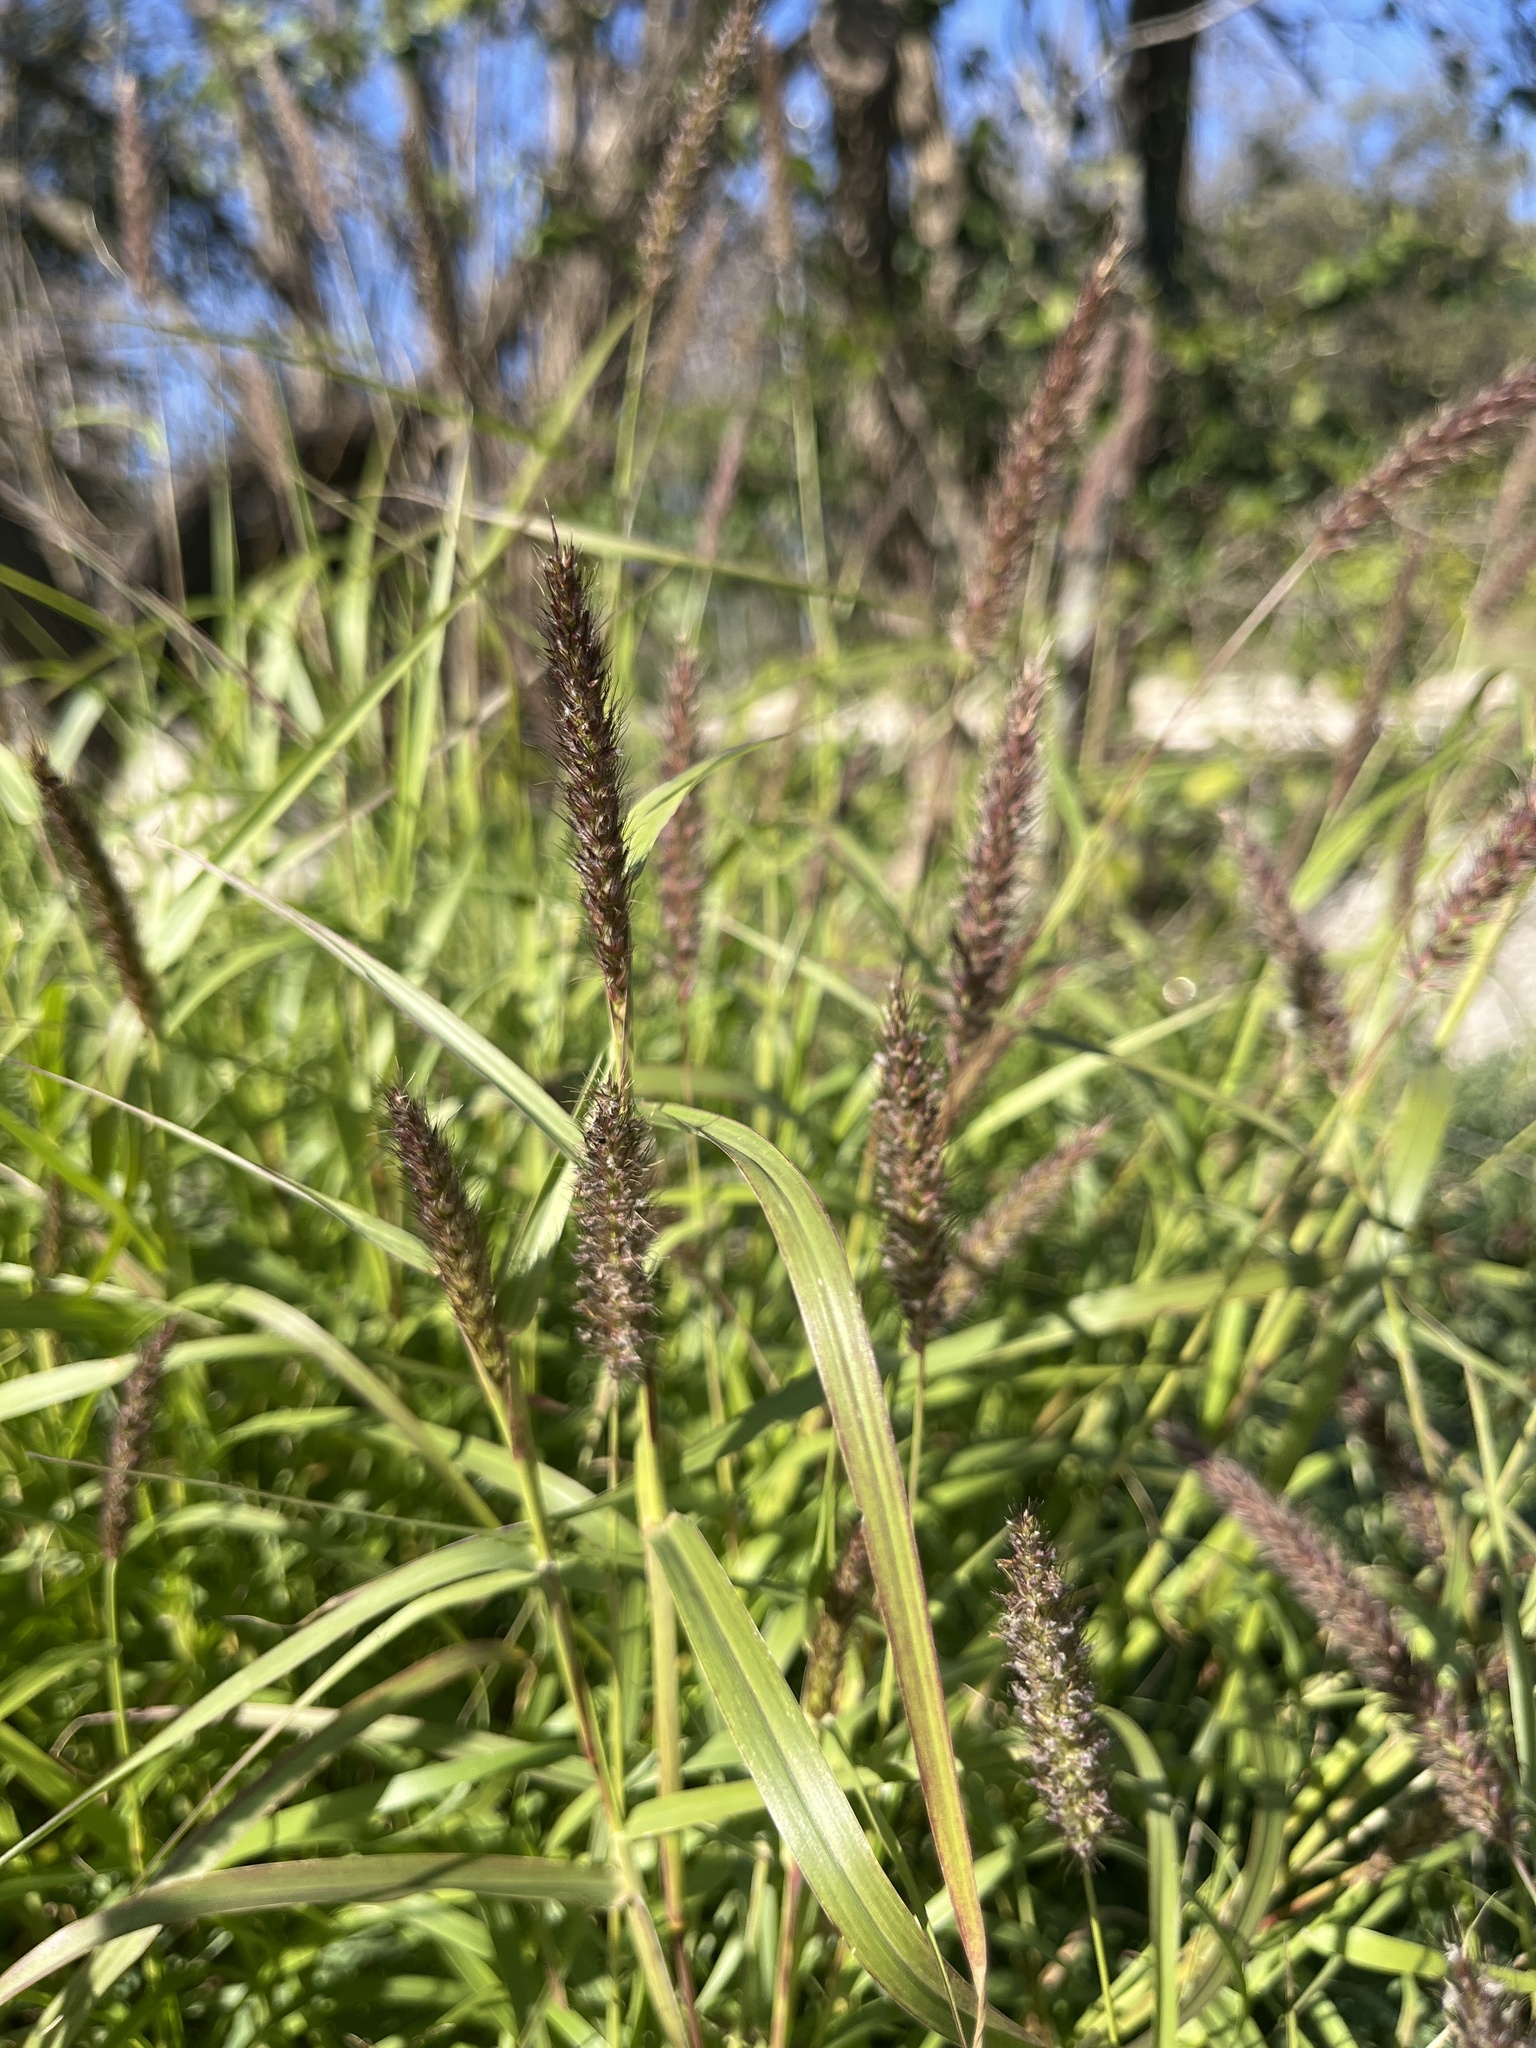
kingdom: Plantae
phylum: Tracheophyta
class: Liliopsida
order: Poales
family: Poaceae
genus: Cenchrus
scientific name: Cenchrus ciliaris
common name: Buffelgrass
